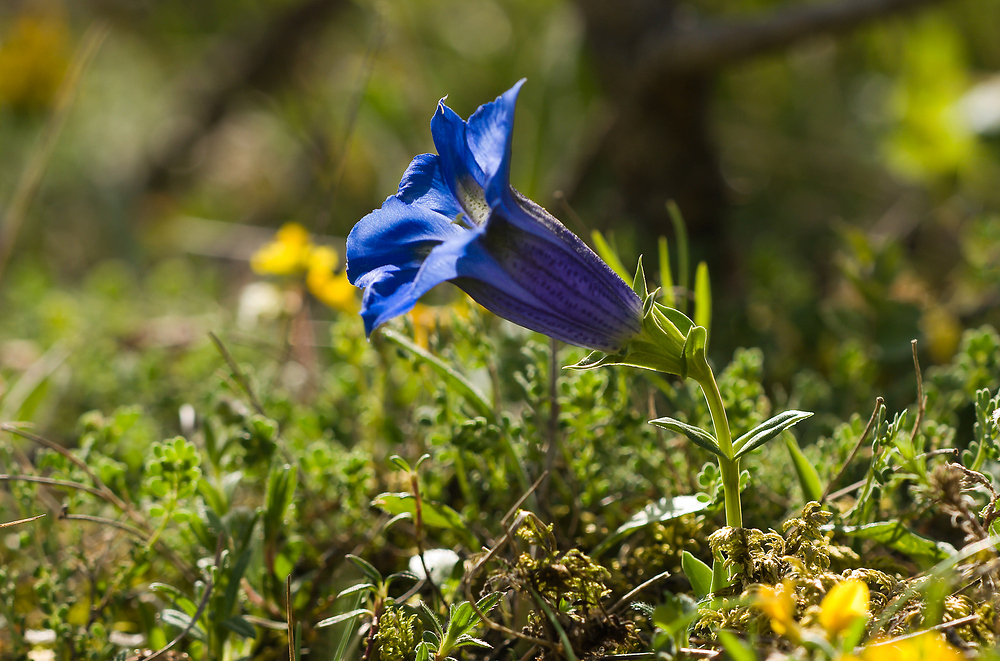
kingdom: Plantae
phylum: Tracheophyta
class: Magnoliopsida
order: Gentianales
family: Gentianaceae
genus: Gentiana
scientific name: Gentiana angustifolia
